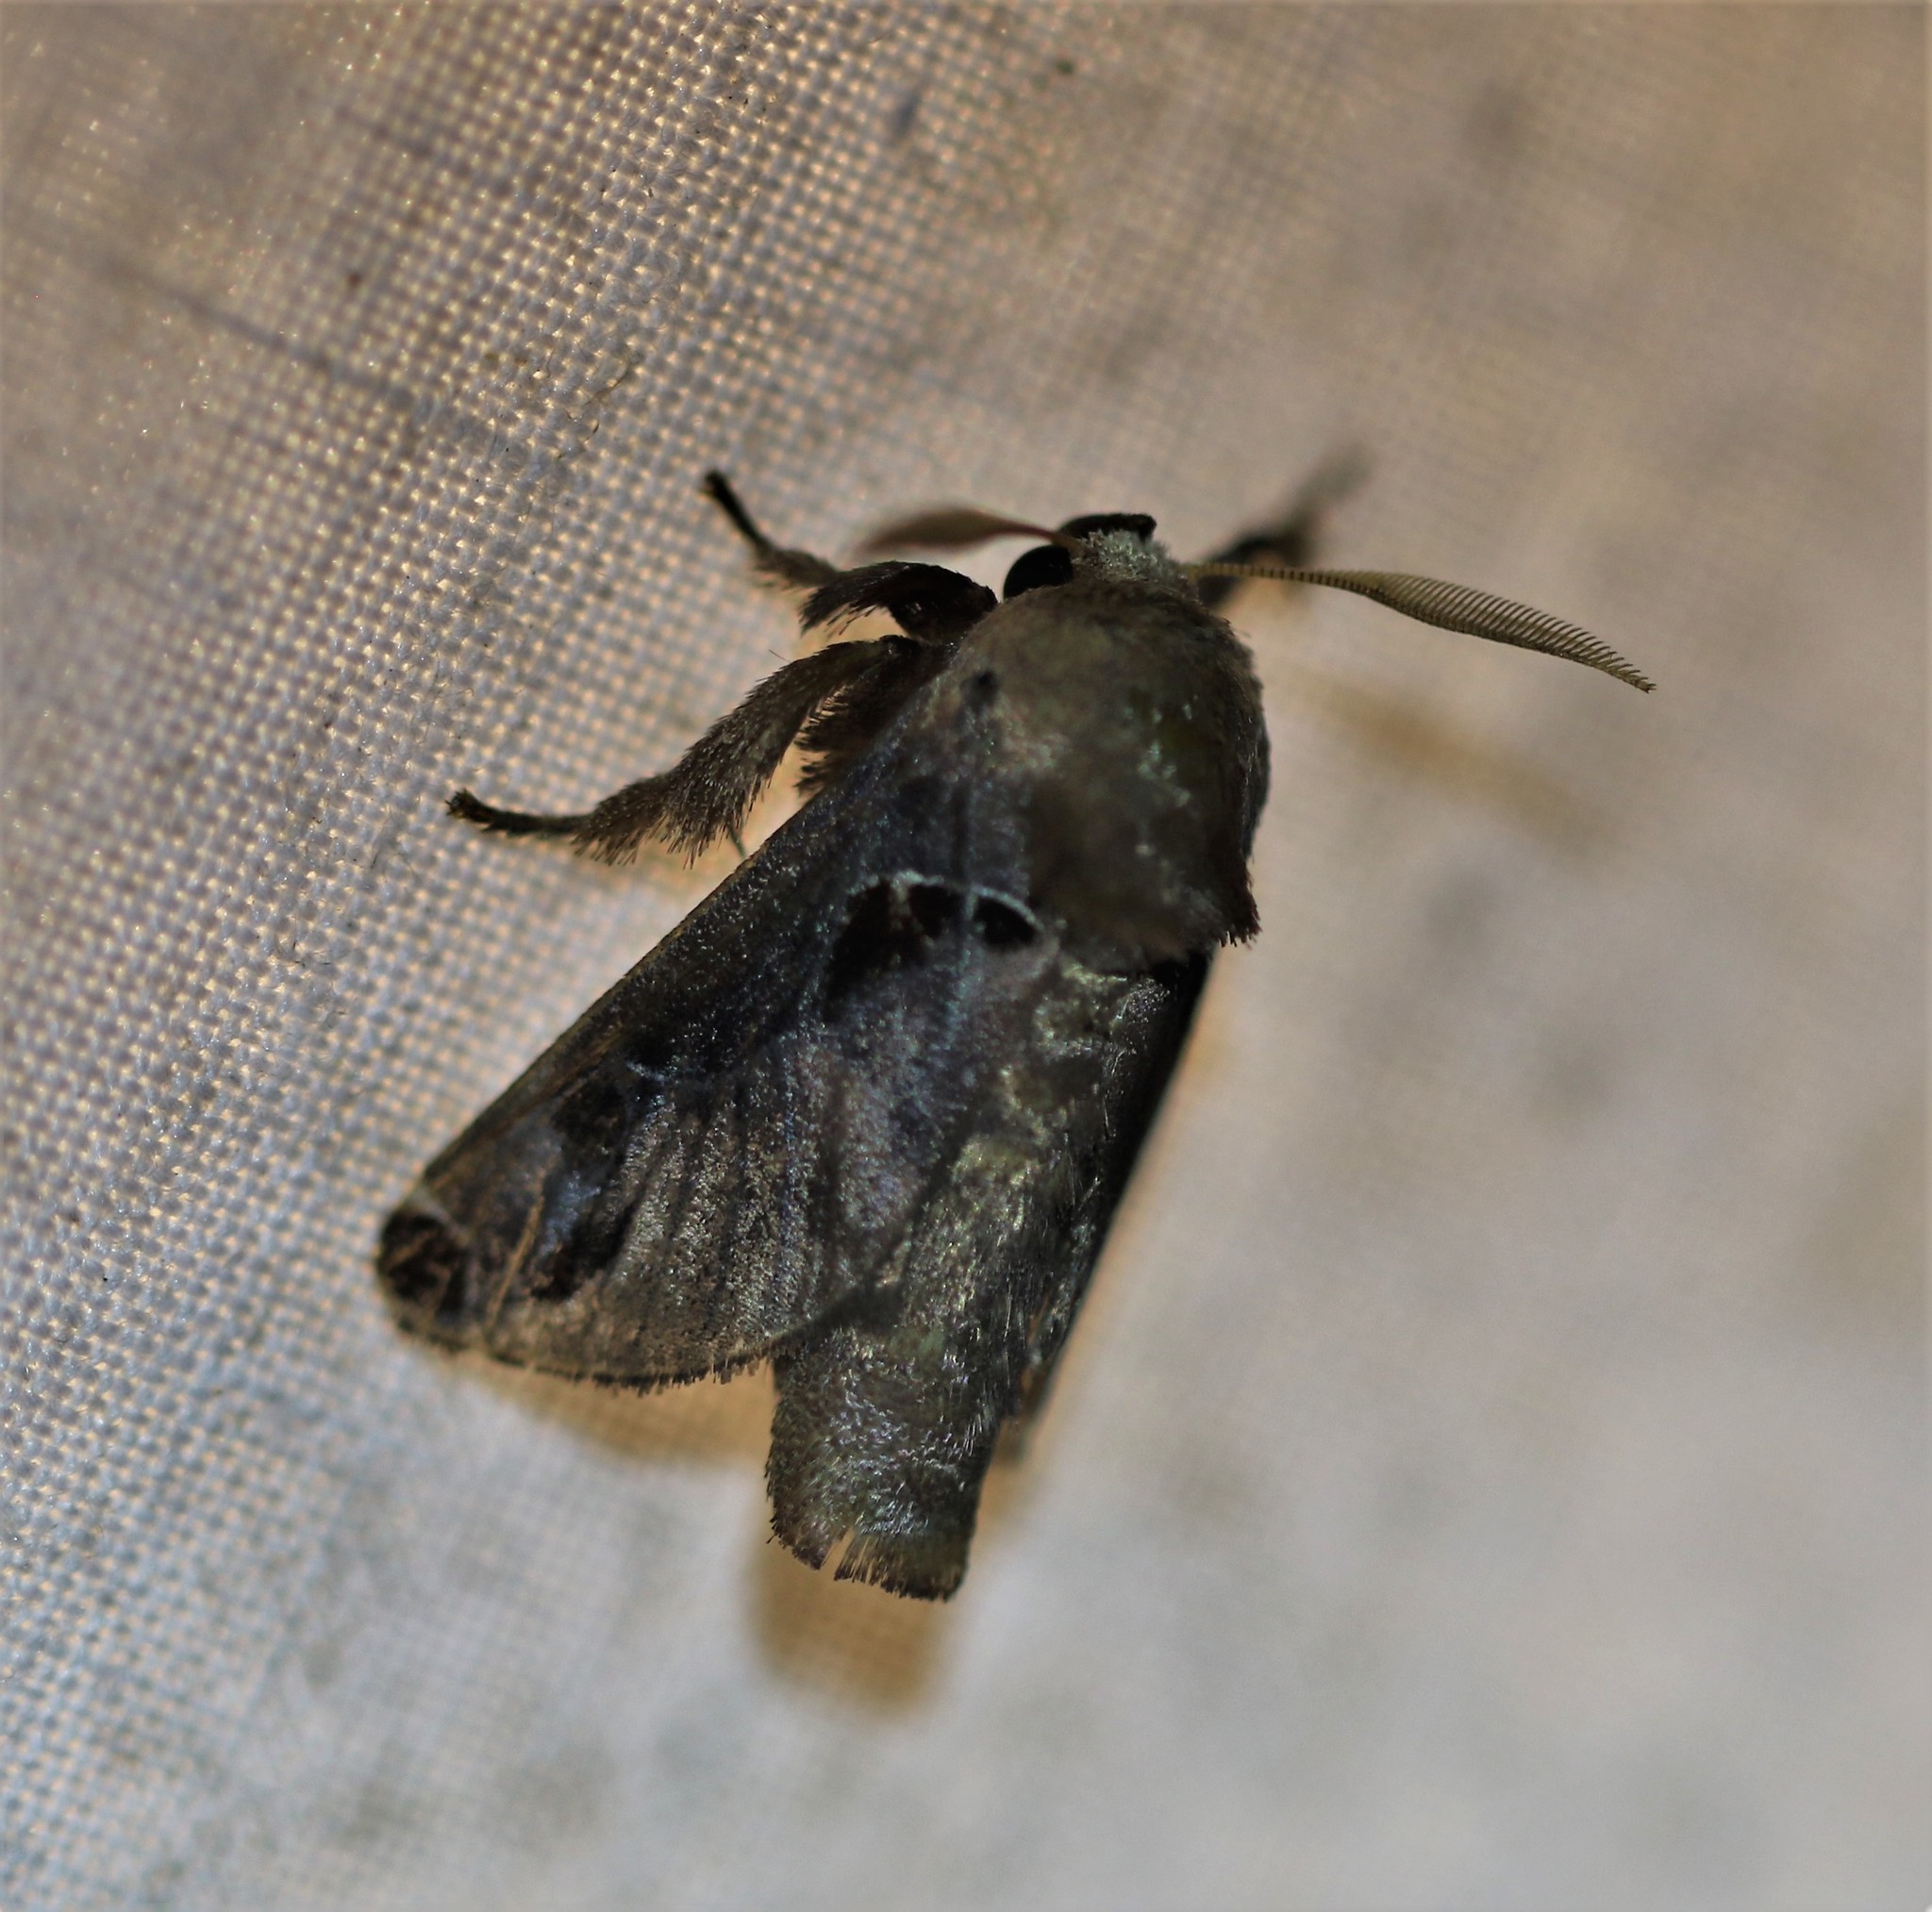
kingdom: Animalia
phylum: Arthropoda
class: Insecta
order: Lepidoptera
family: Limacodidae
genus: Semyra
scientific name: Semyra bella
